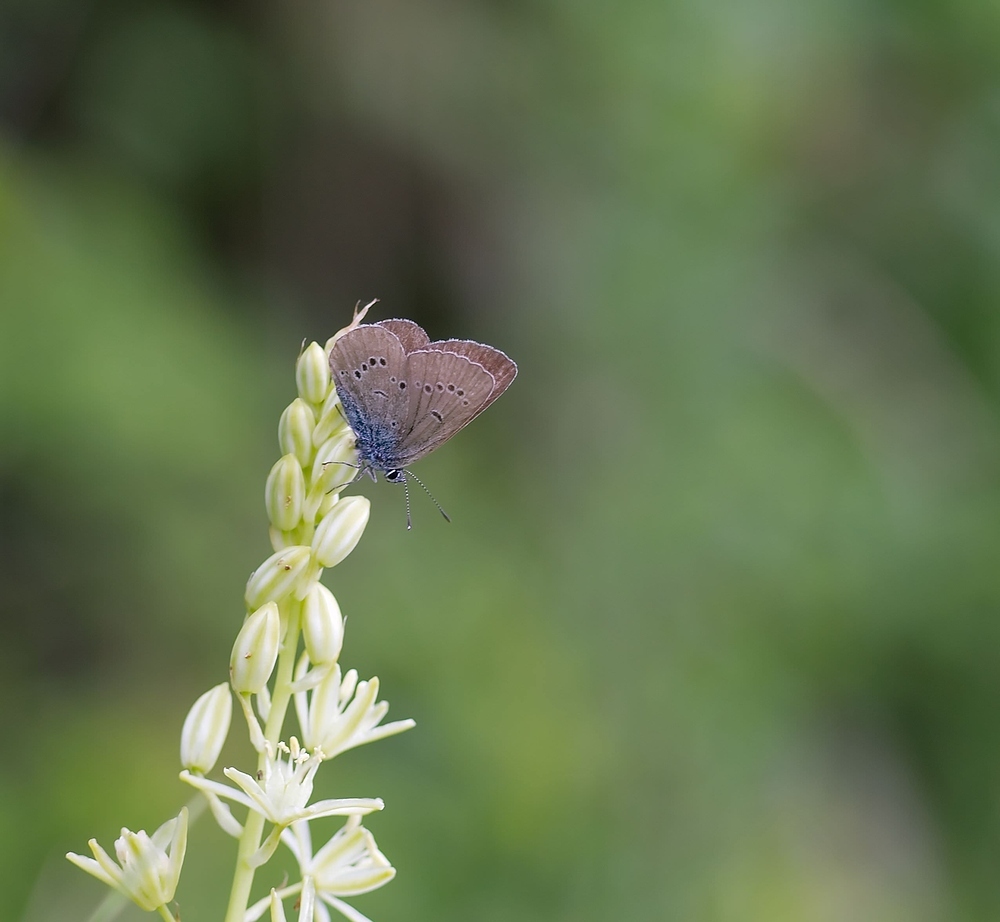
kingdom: Animalia
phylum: Arthropoda
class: Insecta
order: Lepidoptera
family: Lycaenidae
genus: Cyaniris
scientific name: Cyaniris semiargus
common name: Mazarine blue
